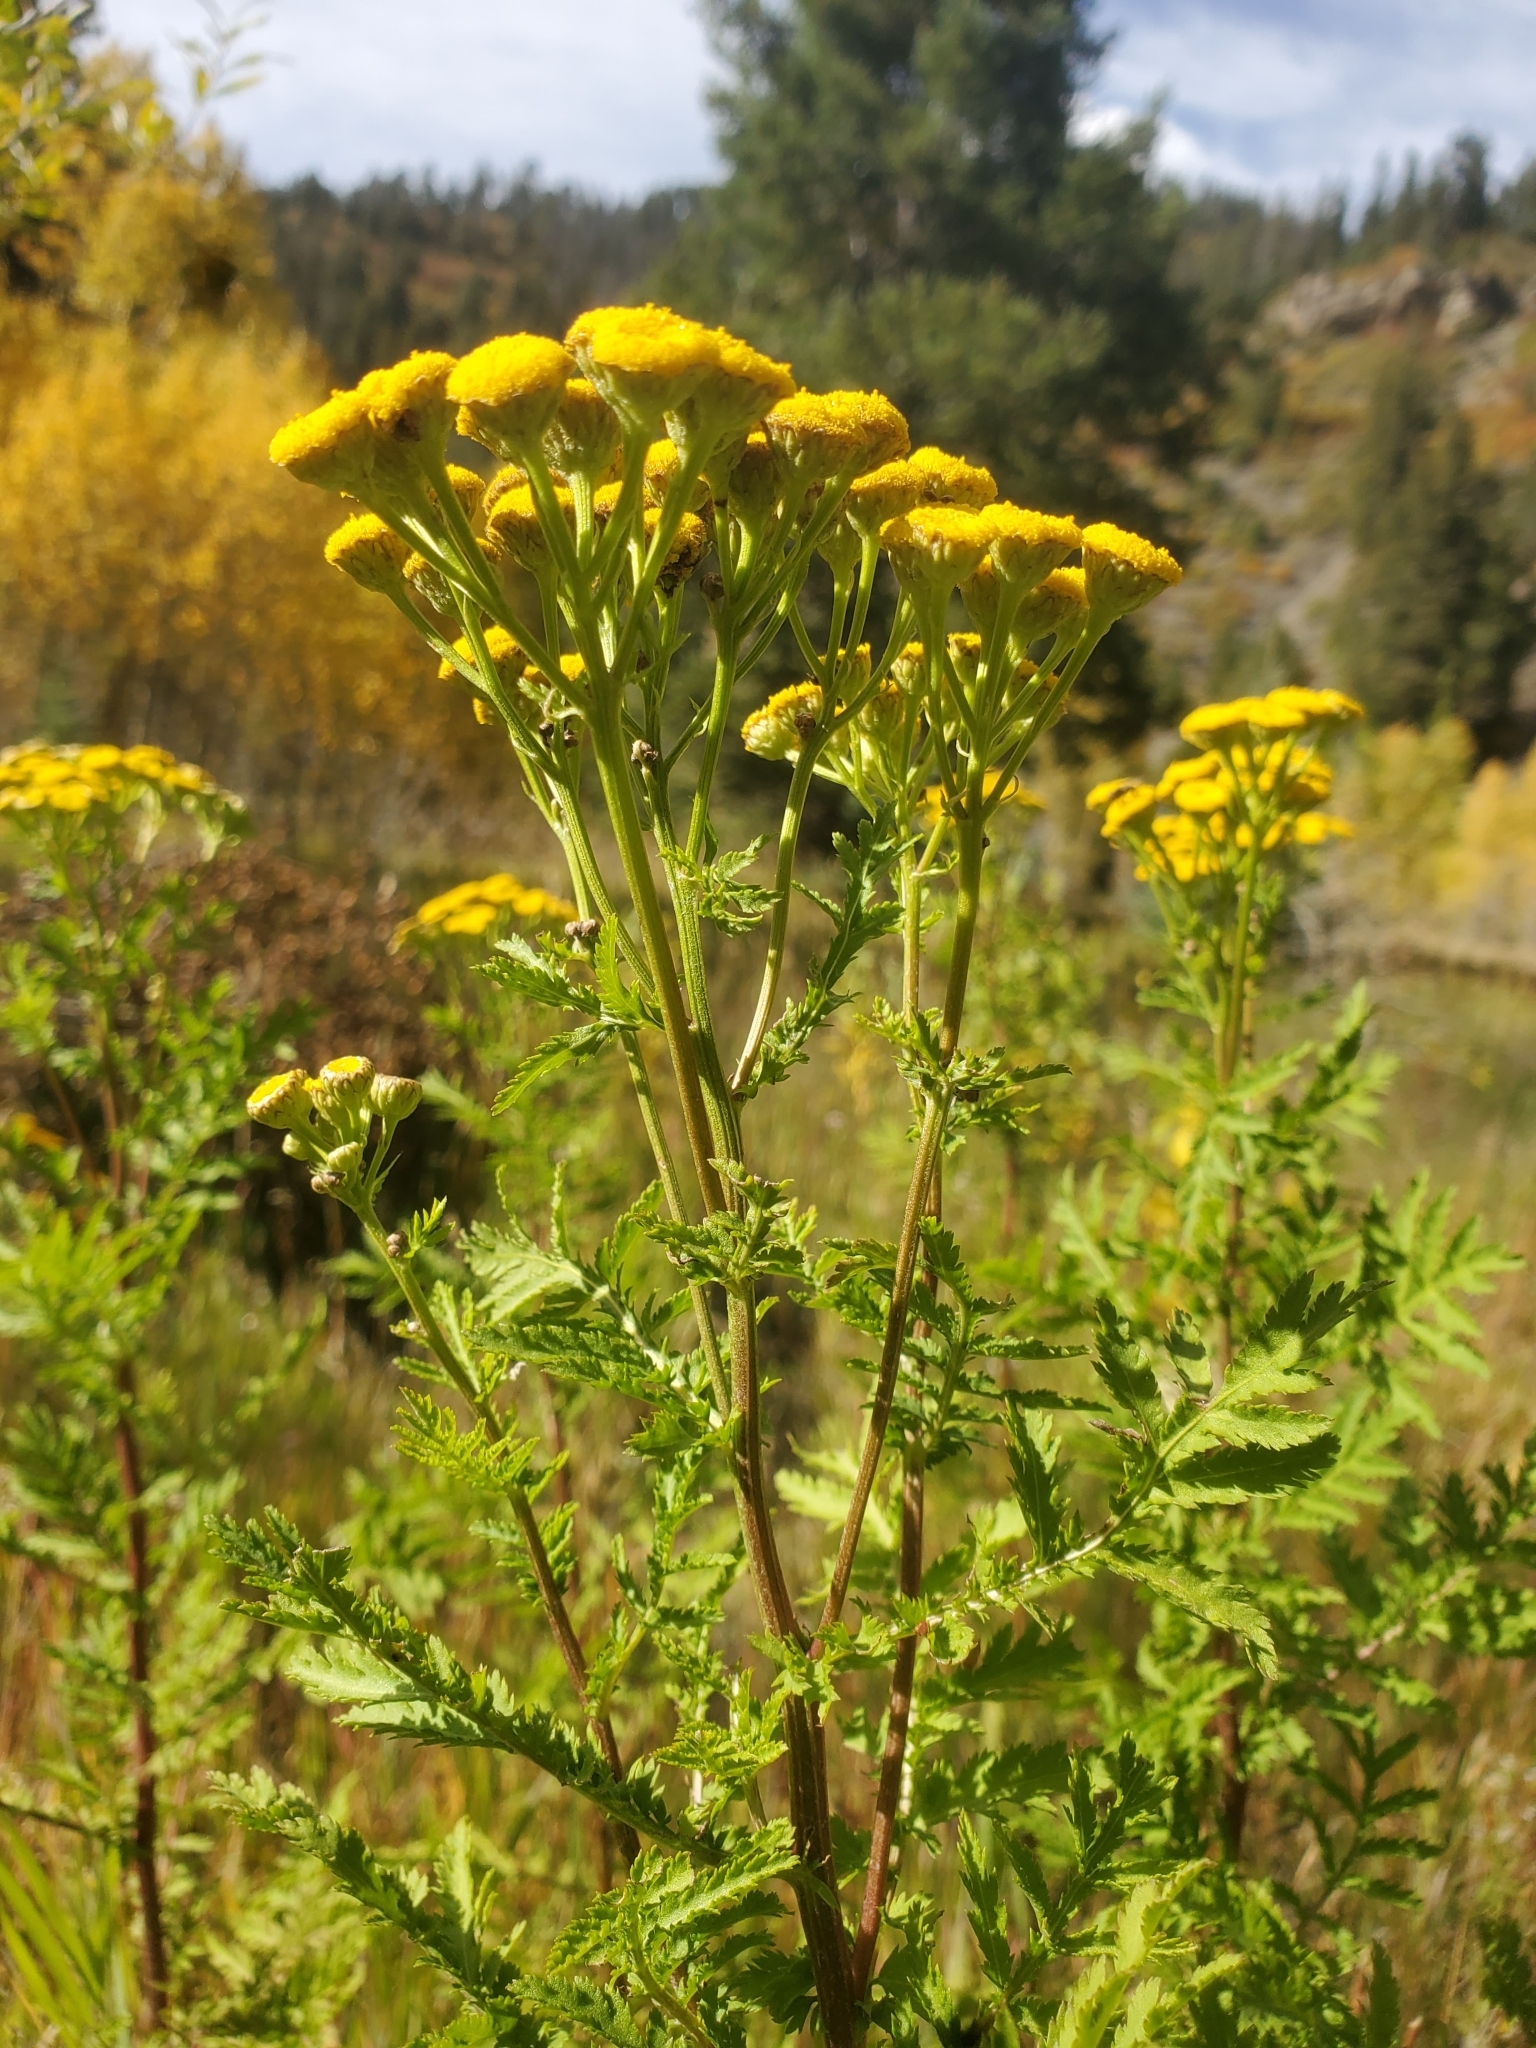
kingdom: Plantae
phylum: Tracheophyta
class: Magnoliopsida
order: Asterales
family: Asteraceae
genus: Tanacetum
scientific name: Tanacetum vulgare
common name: Common tansy
